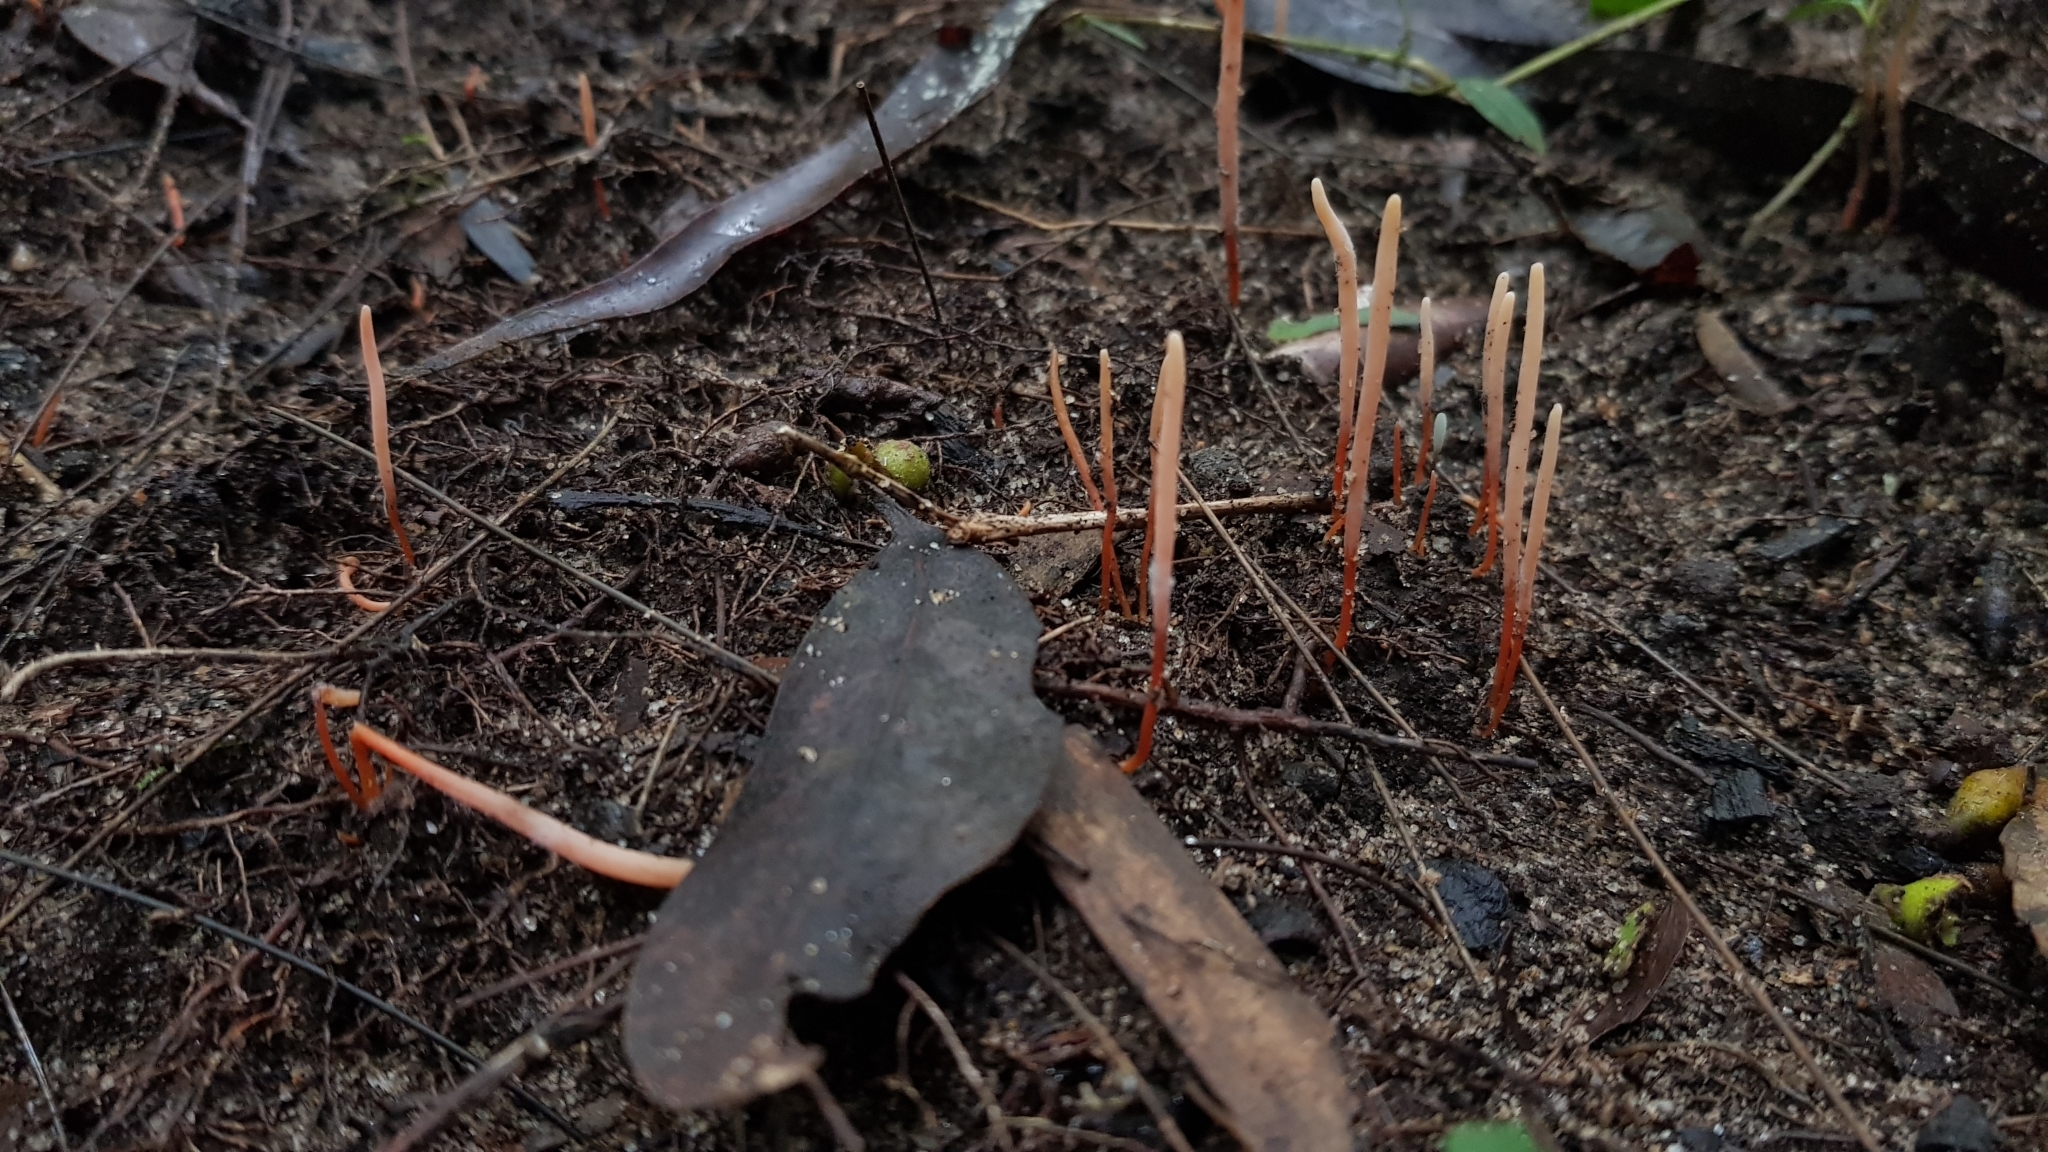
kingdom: Fungi
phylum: Basidiomycota
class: Agaricomycetes
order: Agaricales
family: Clavariaceae
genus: Clavulinopsis
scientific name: Clavulinopsis corallinorosacea
